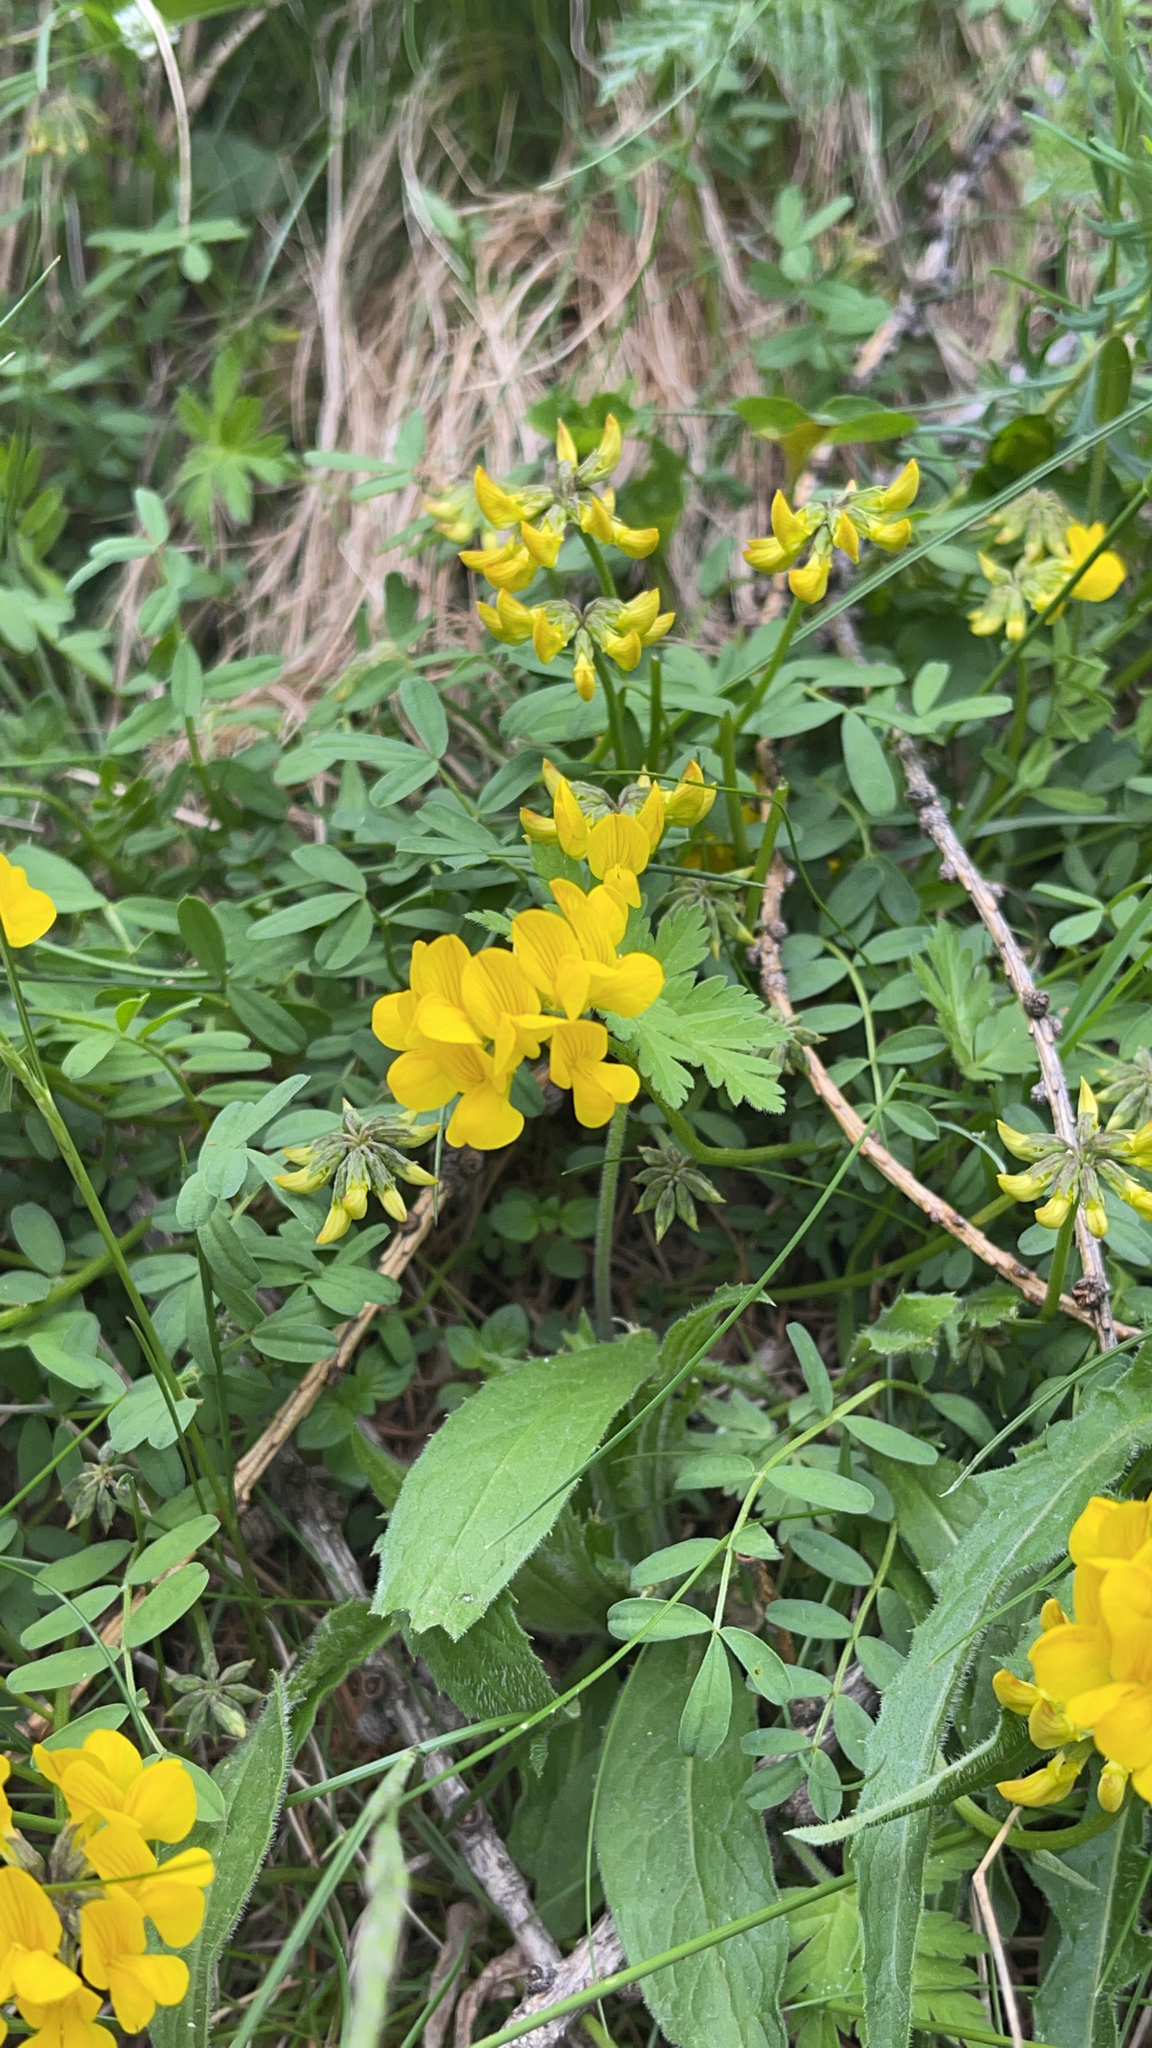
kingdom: Plantae
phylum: Tracheophyta
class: Magnoliopsida
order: Fabales
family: Fabaceae
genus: Hippocrepis
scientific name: Hippocrepis comosa
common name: Horseshoe vetch
